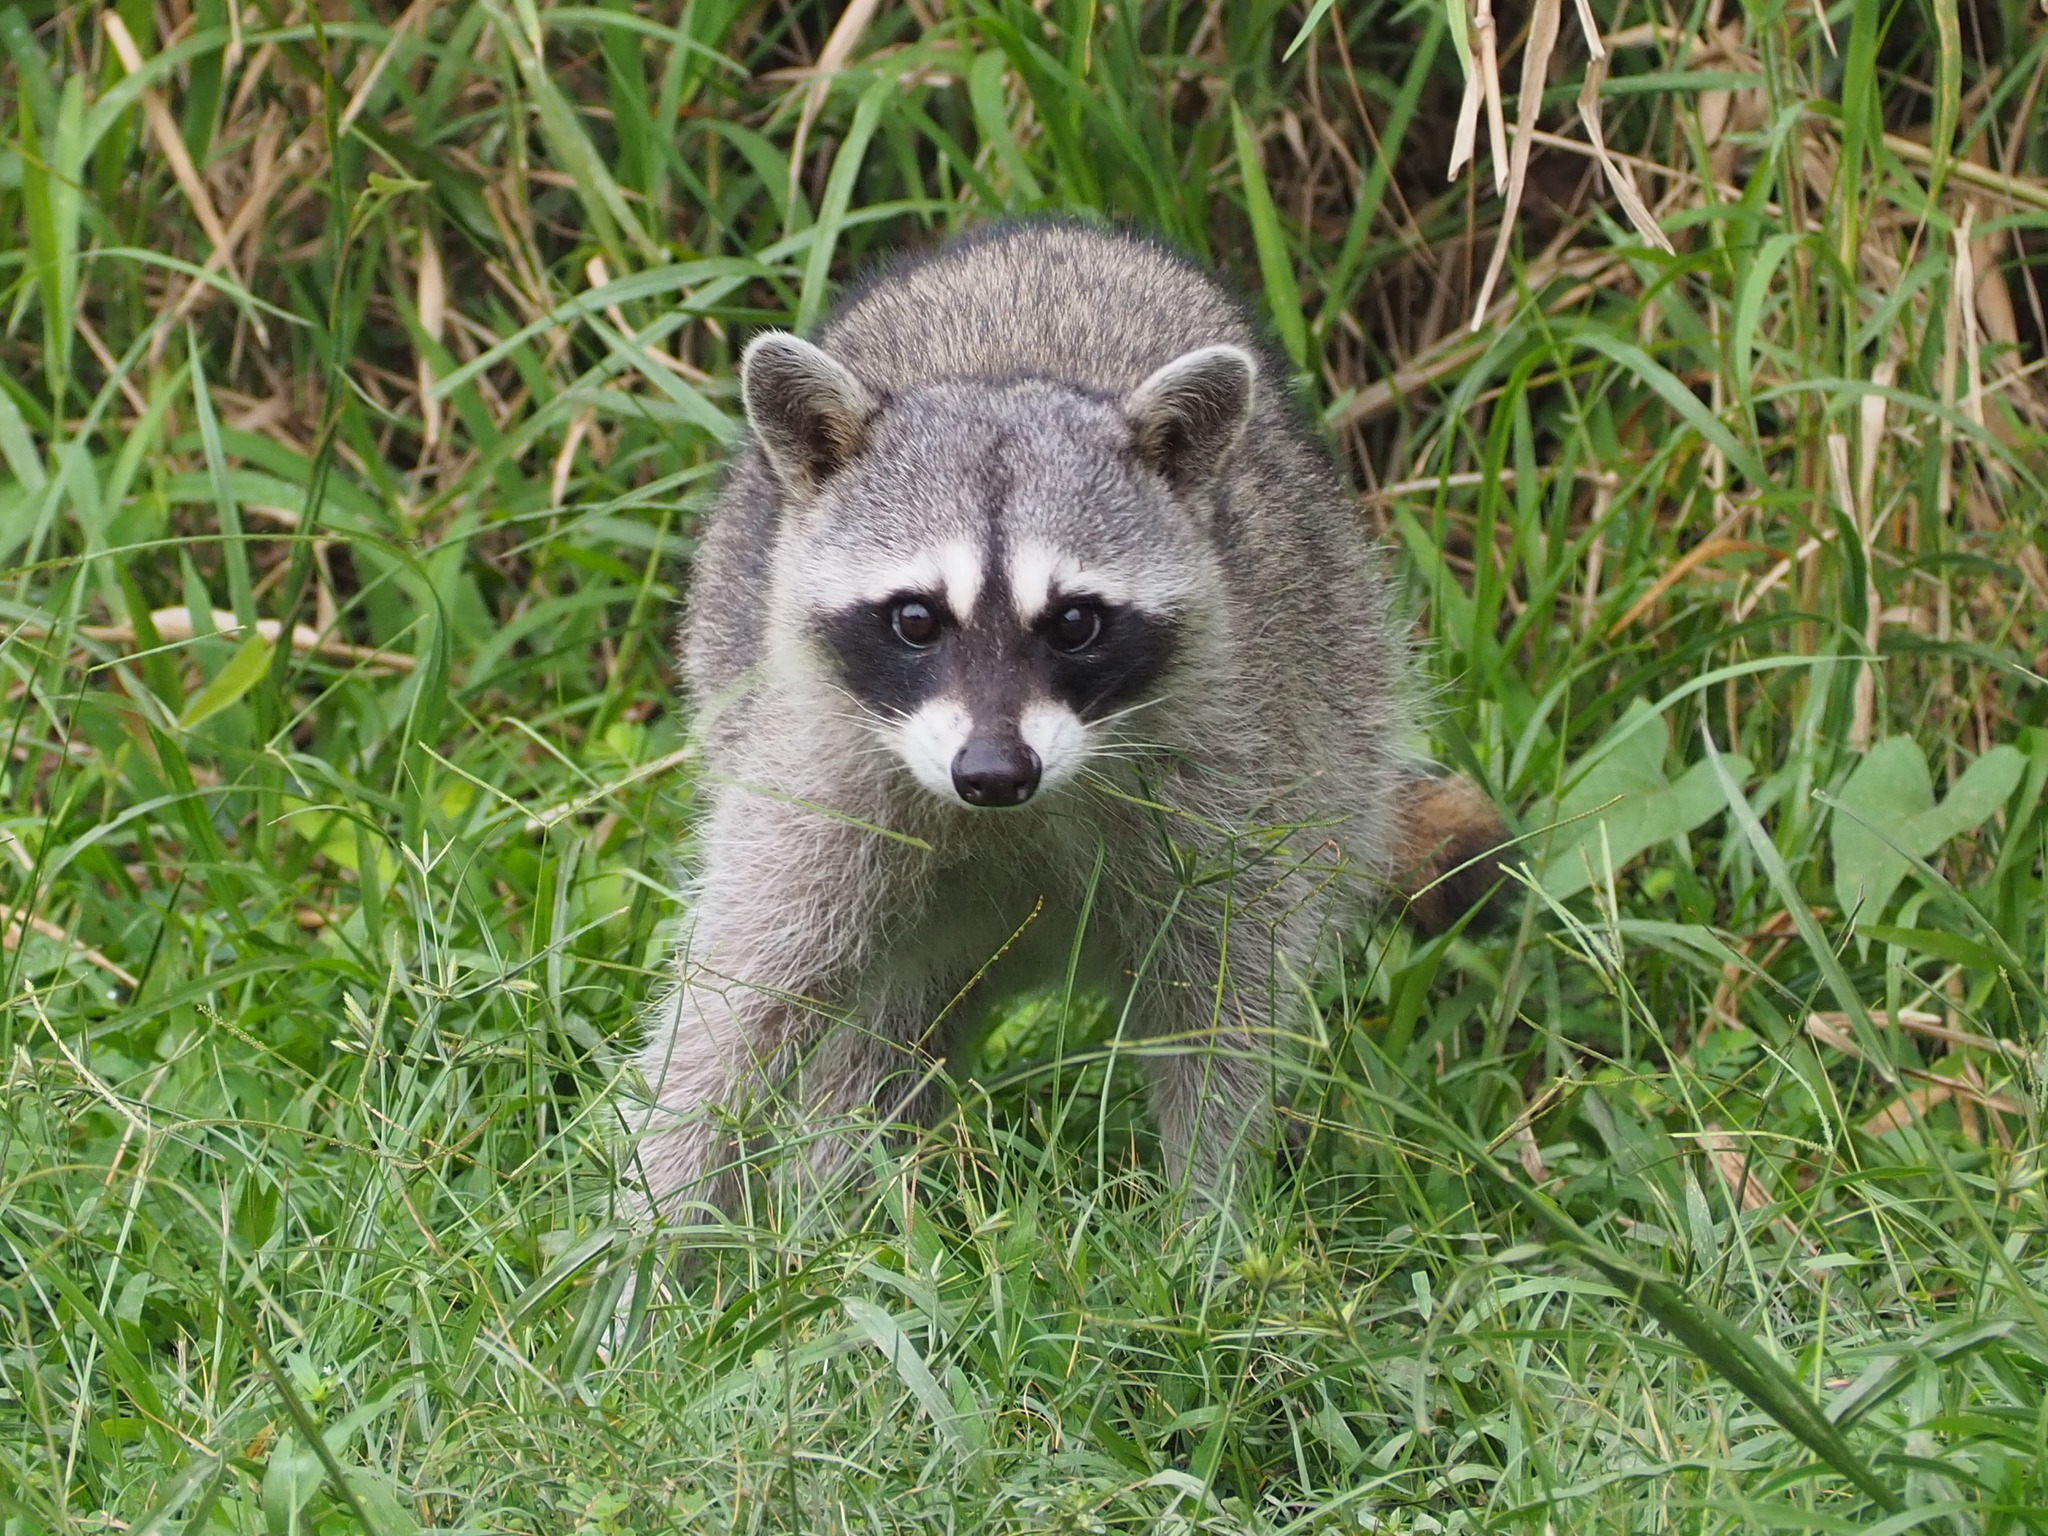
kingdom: Animalia
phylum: Chordata
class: Mammalia
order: Carnivora
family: Procyonidae
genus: Procyon
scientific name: Procyon lotor
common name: Raccoon
